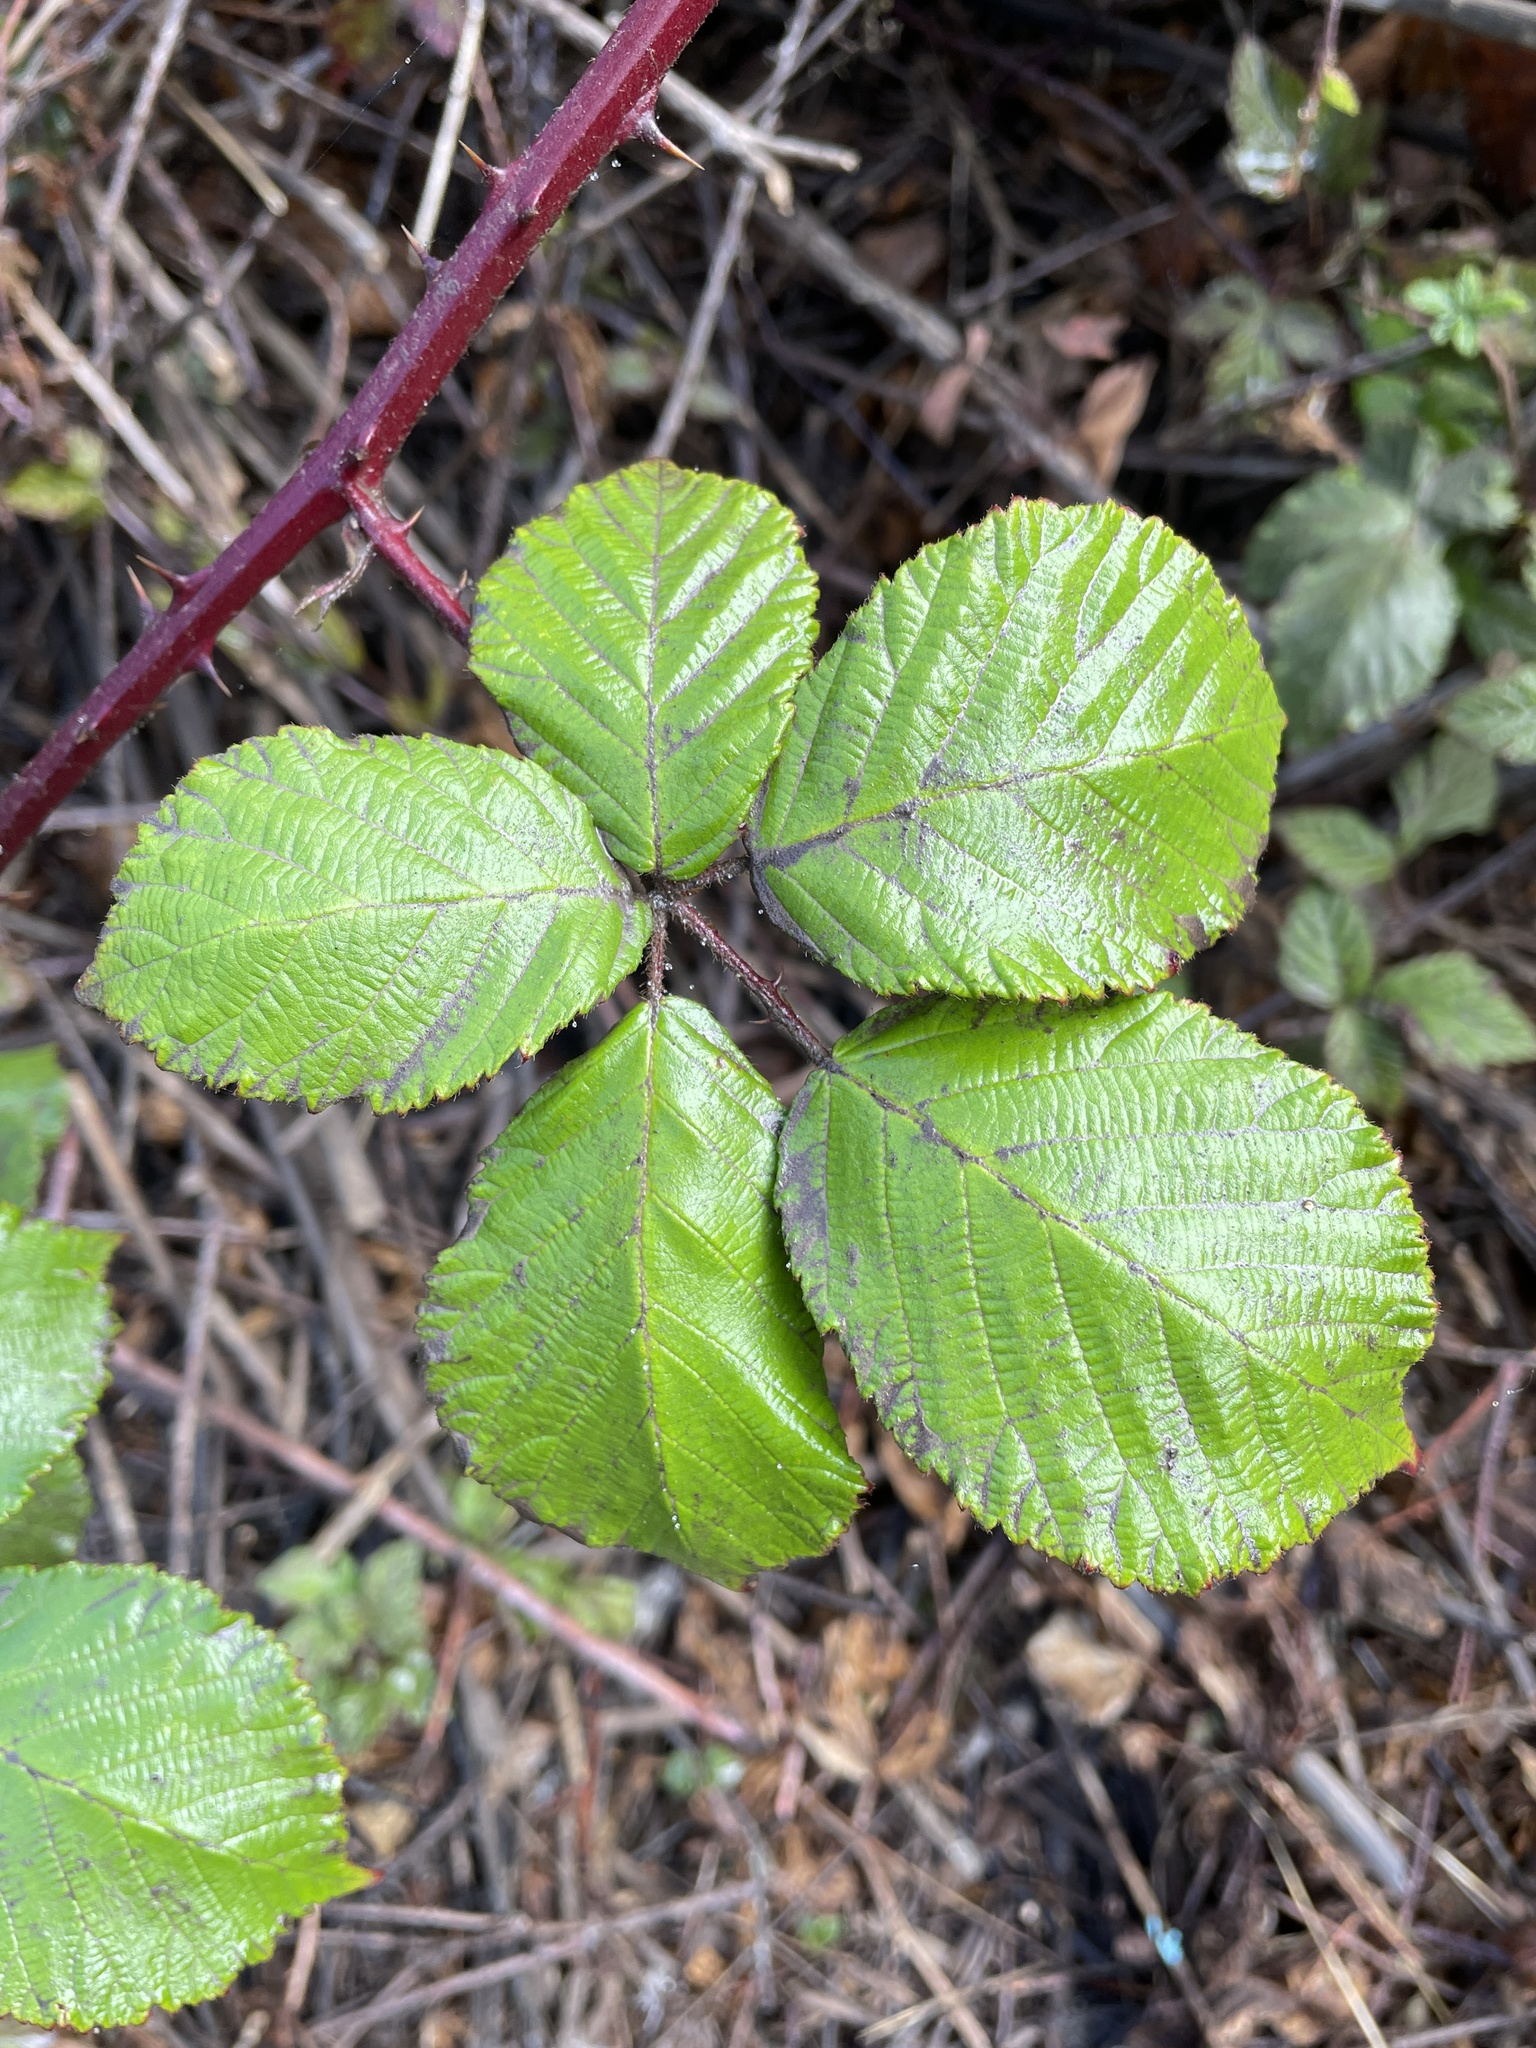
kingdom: Plantae
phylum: Tracheophyta
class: Magnoliopsida
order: Rosales
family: Rosaceae
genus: Rubus
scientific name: Rubus armeniacus
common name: Himalayan blackberry
